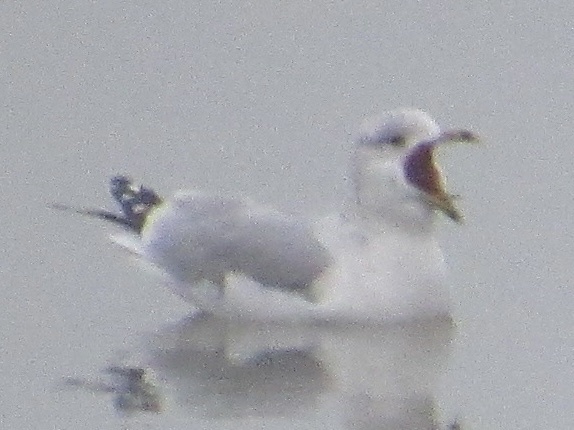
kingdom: Animalia
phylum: Chordata
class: Aves
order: Charadriiformes
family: Laridae
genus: Larus
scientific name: Larus delawarensis
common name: Ring-billed gull
